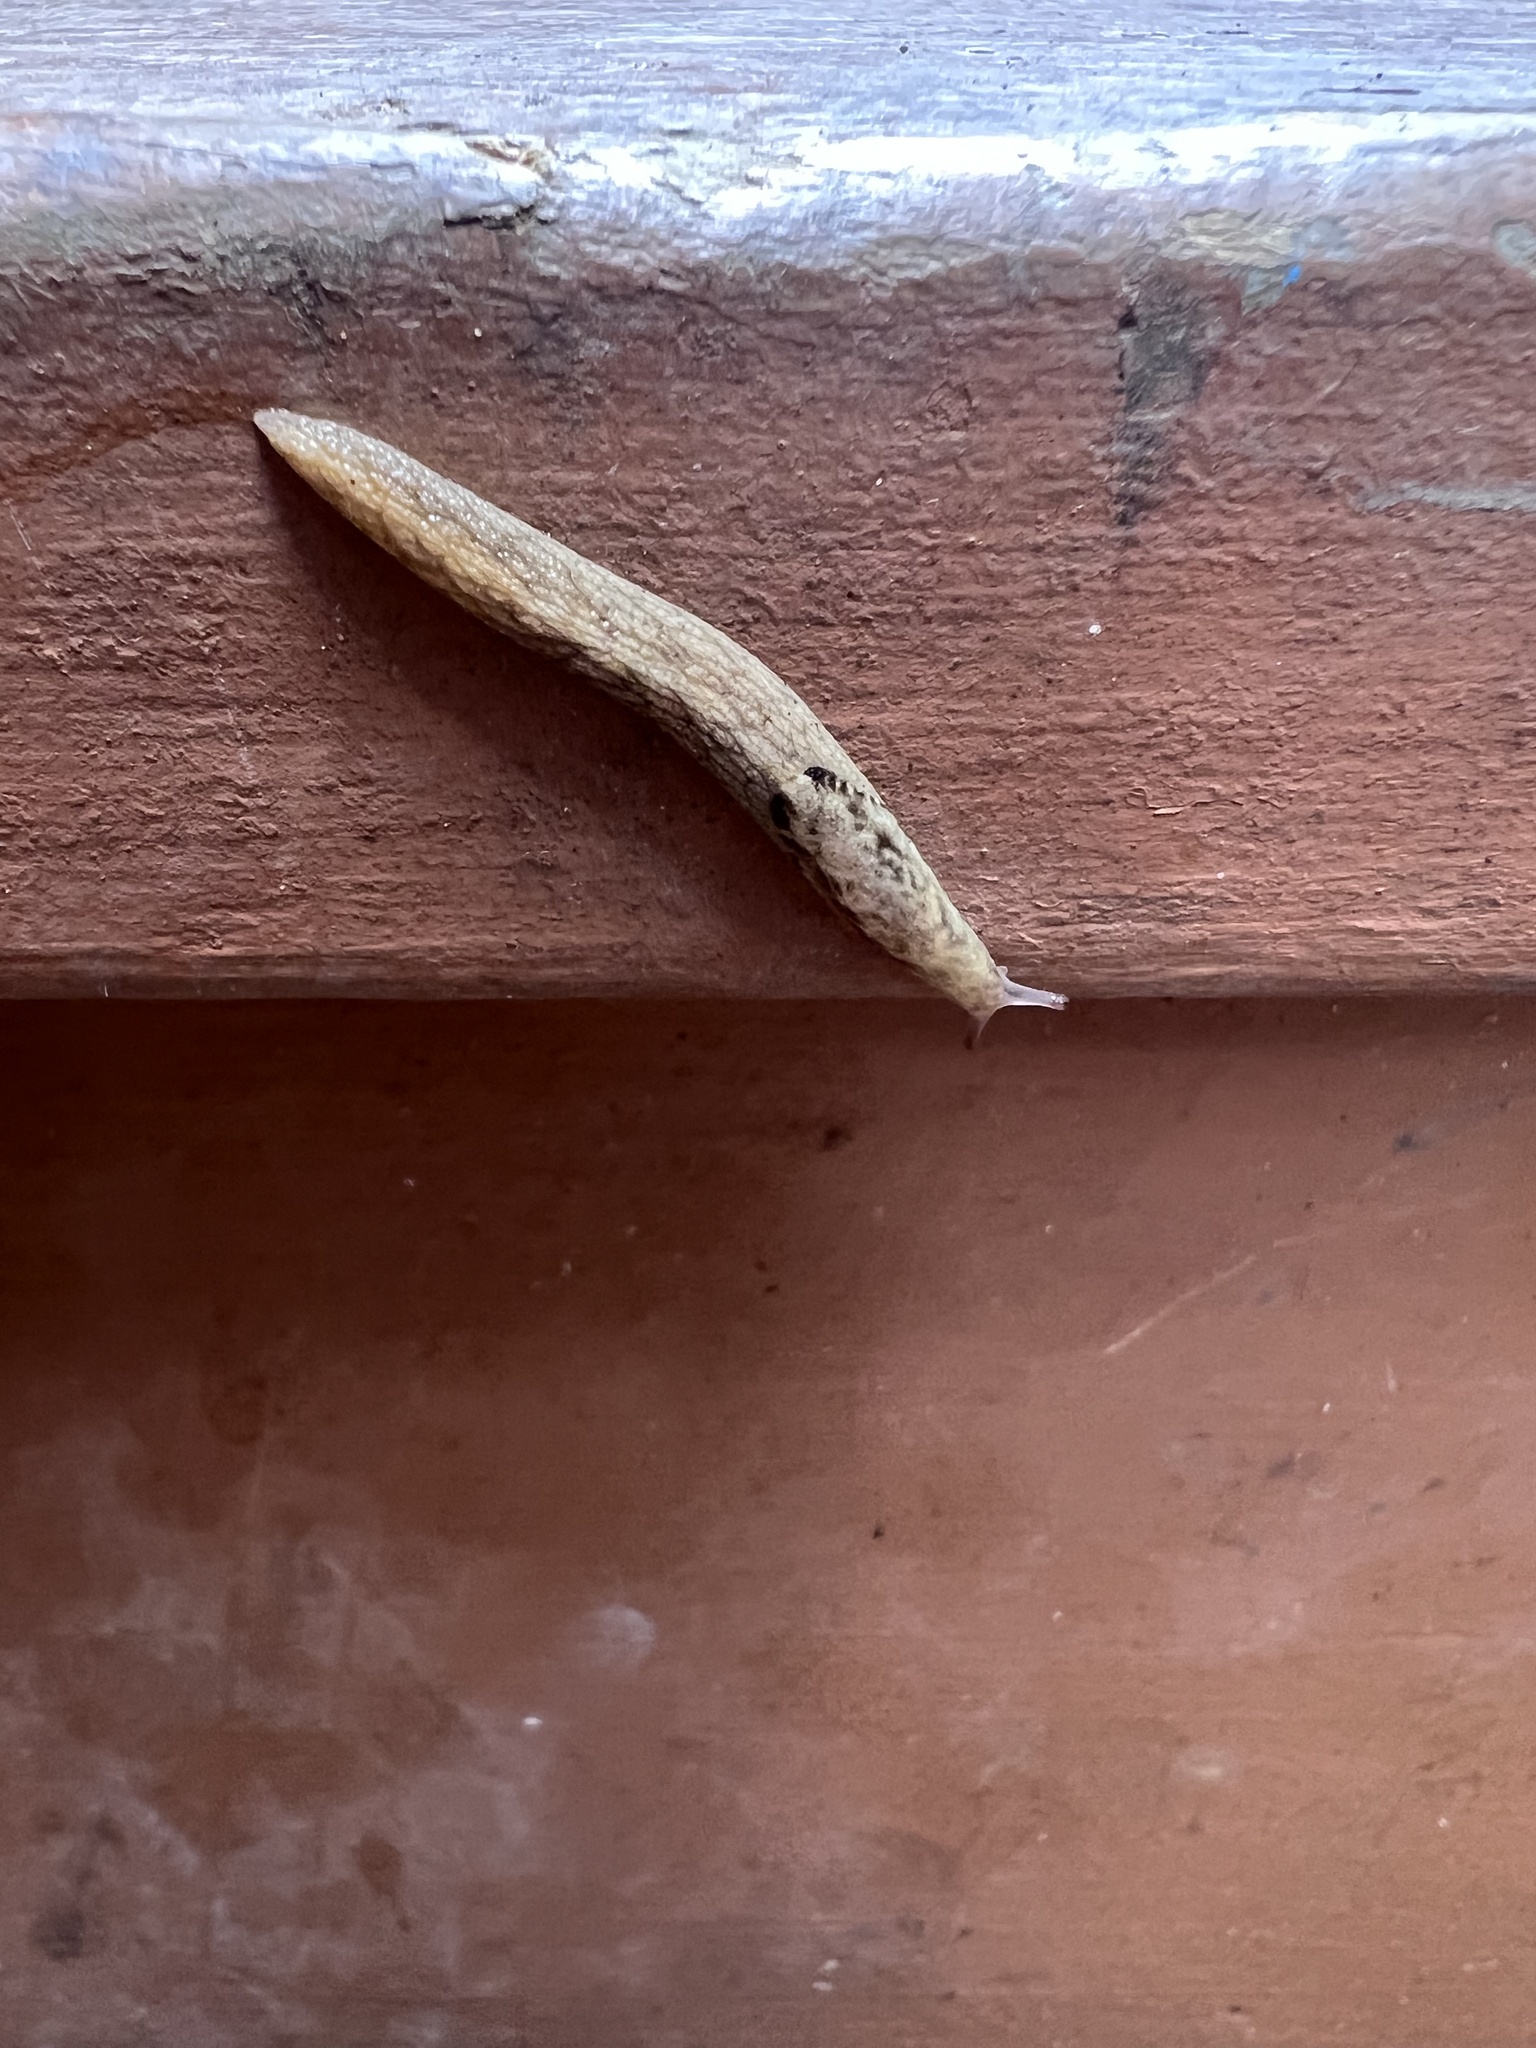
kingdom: Animalia
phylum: Mollusca
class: Gastropoda
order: Stylommatophora
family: Ariolimacidae
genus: Prophysaon
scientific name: Prophysaon andersonii
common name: Reticulate taildropper
